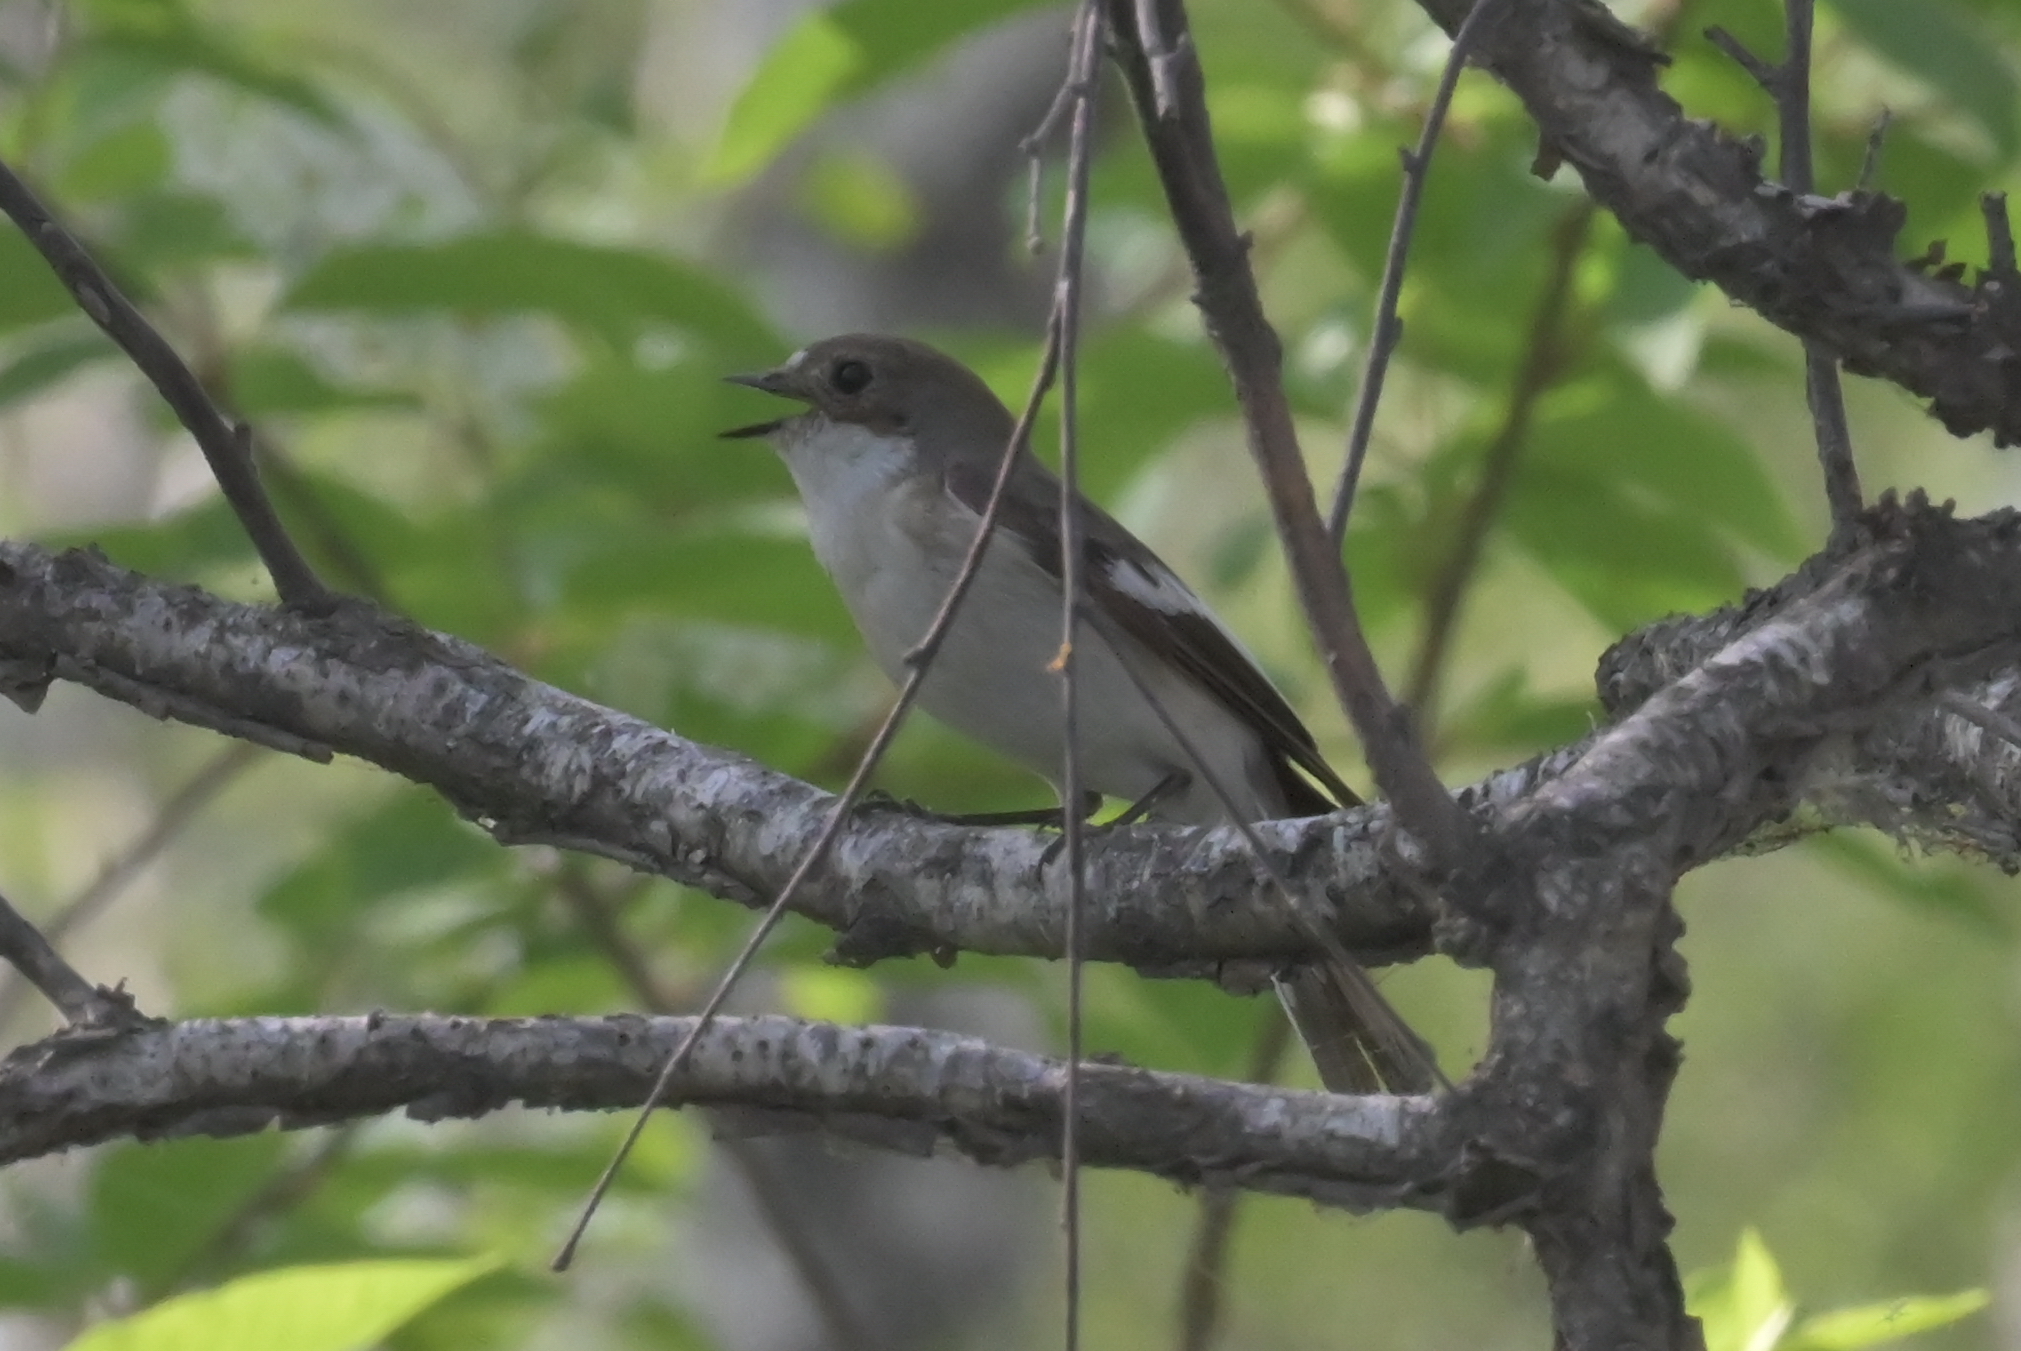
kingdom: Animalia
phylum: Chordata
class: Aves
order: Passeriformes
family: Muscicapidae
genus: Ficedula
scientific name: Ficedula hypoleuca
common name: European pied flycatcher
